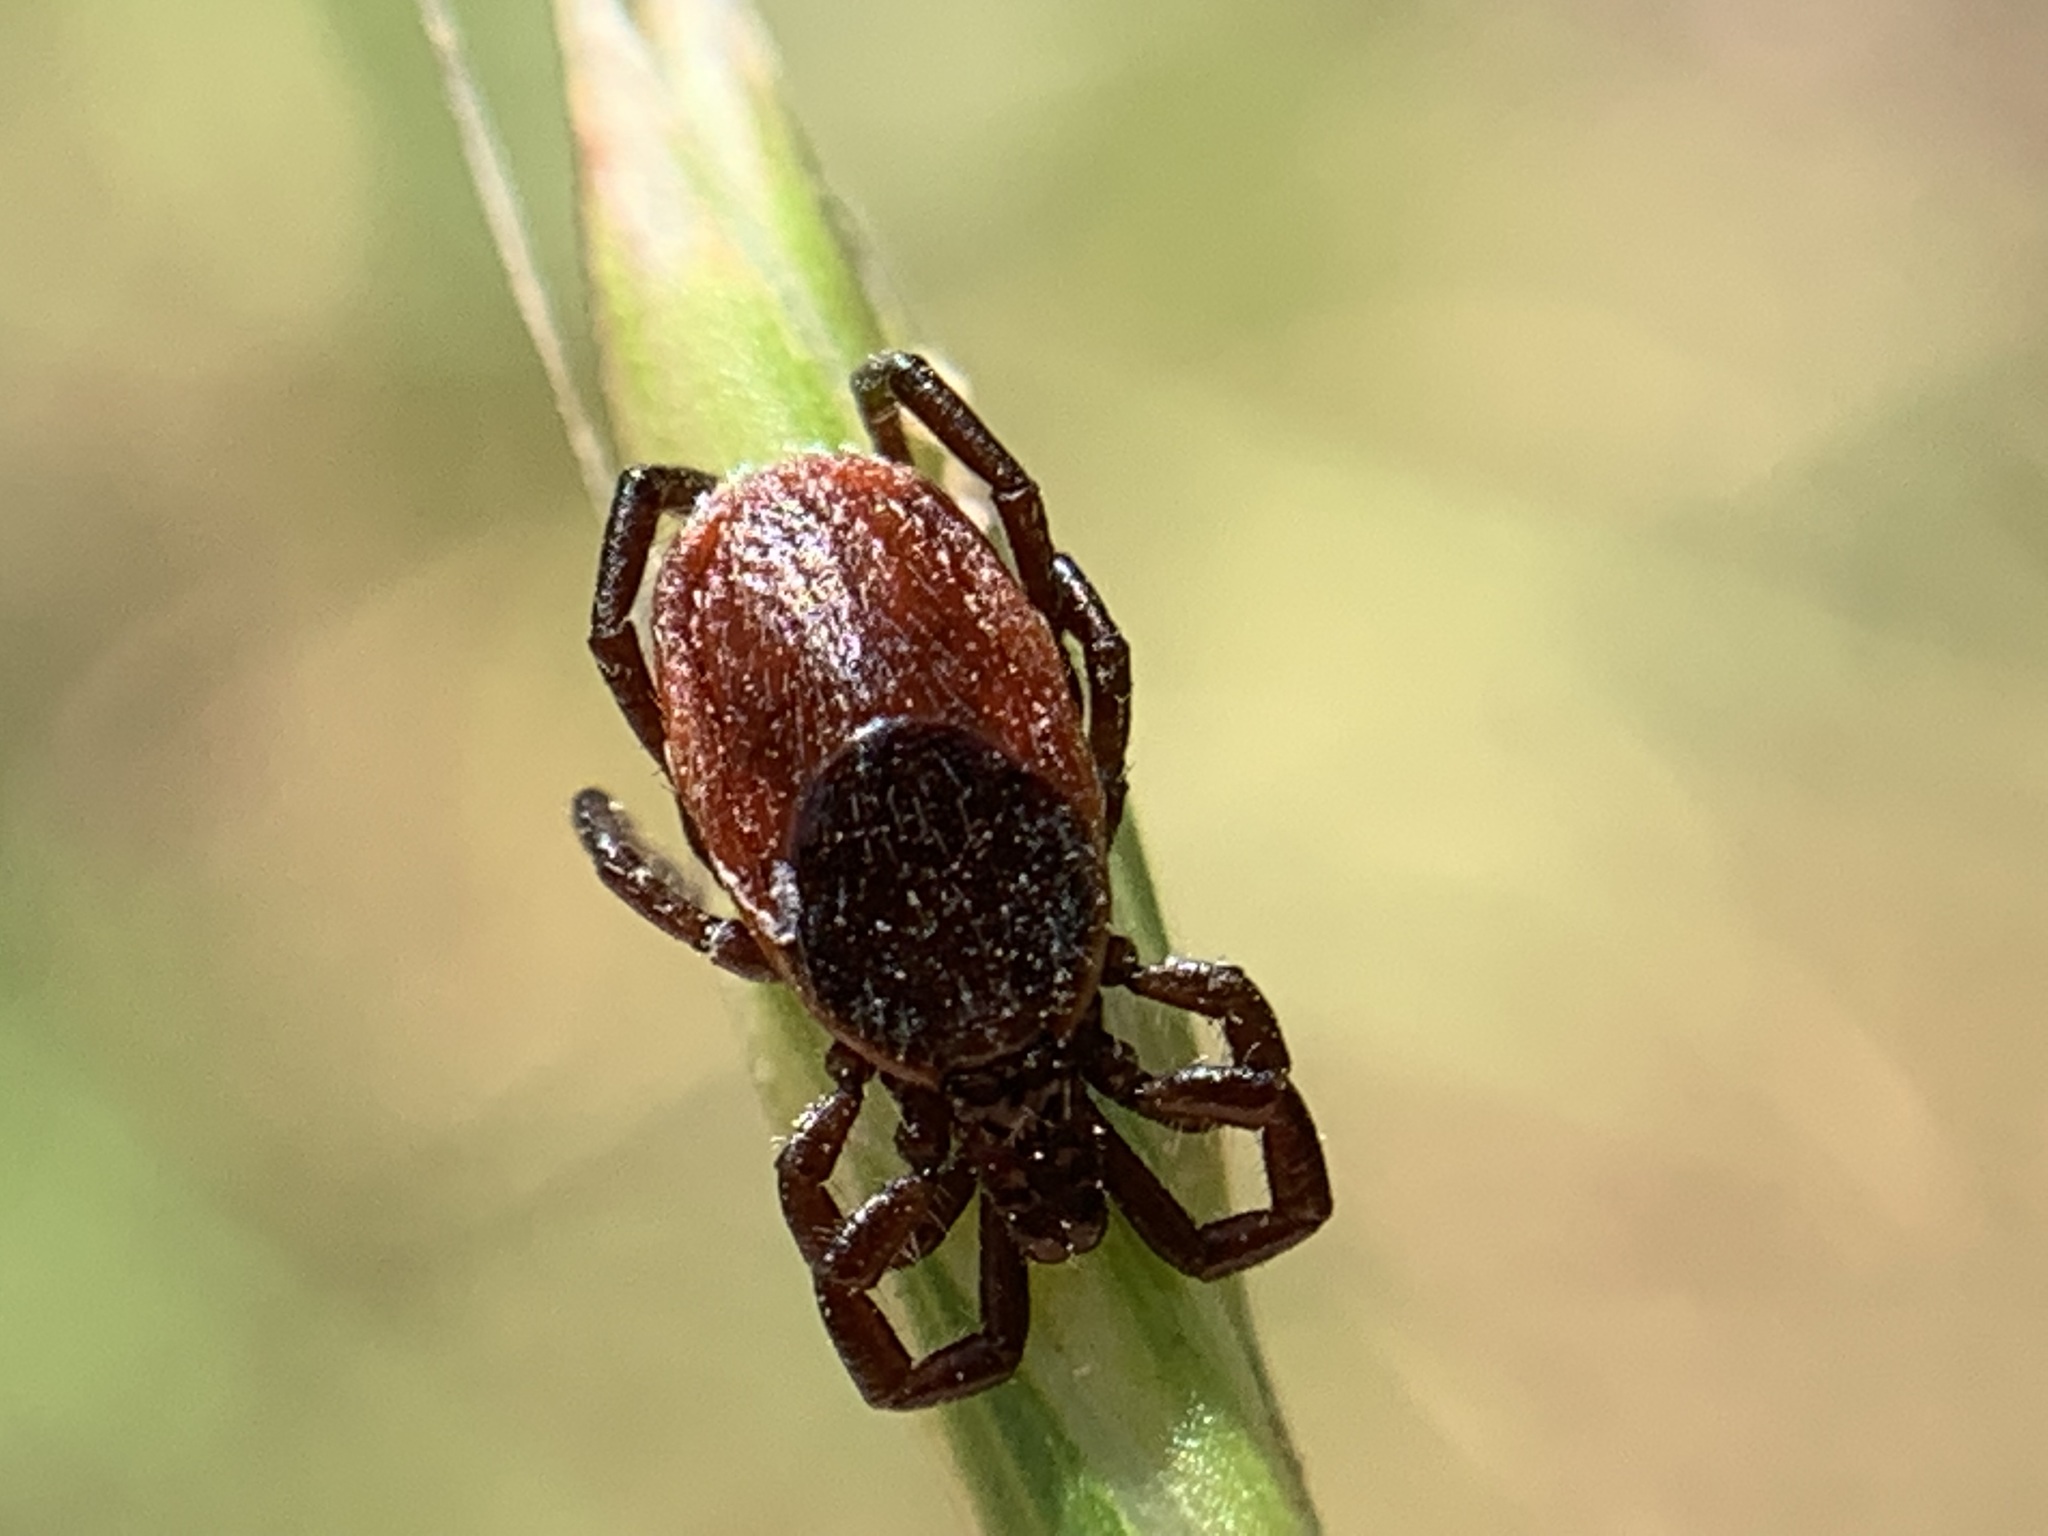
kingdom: Animalia
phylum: Arthropoda
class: Arachnida
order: Ixodida
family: Ixodidae
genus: Ixodes
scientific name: Ixodes pacificus
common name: California black-legged tick
